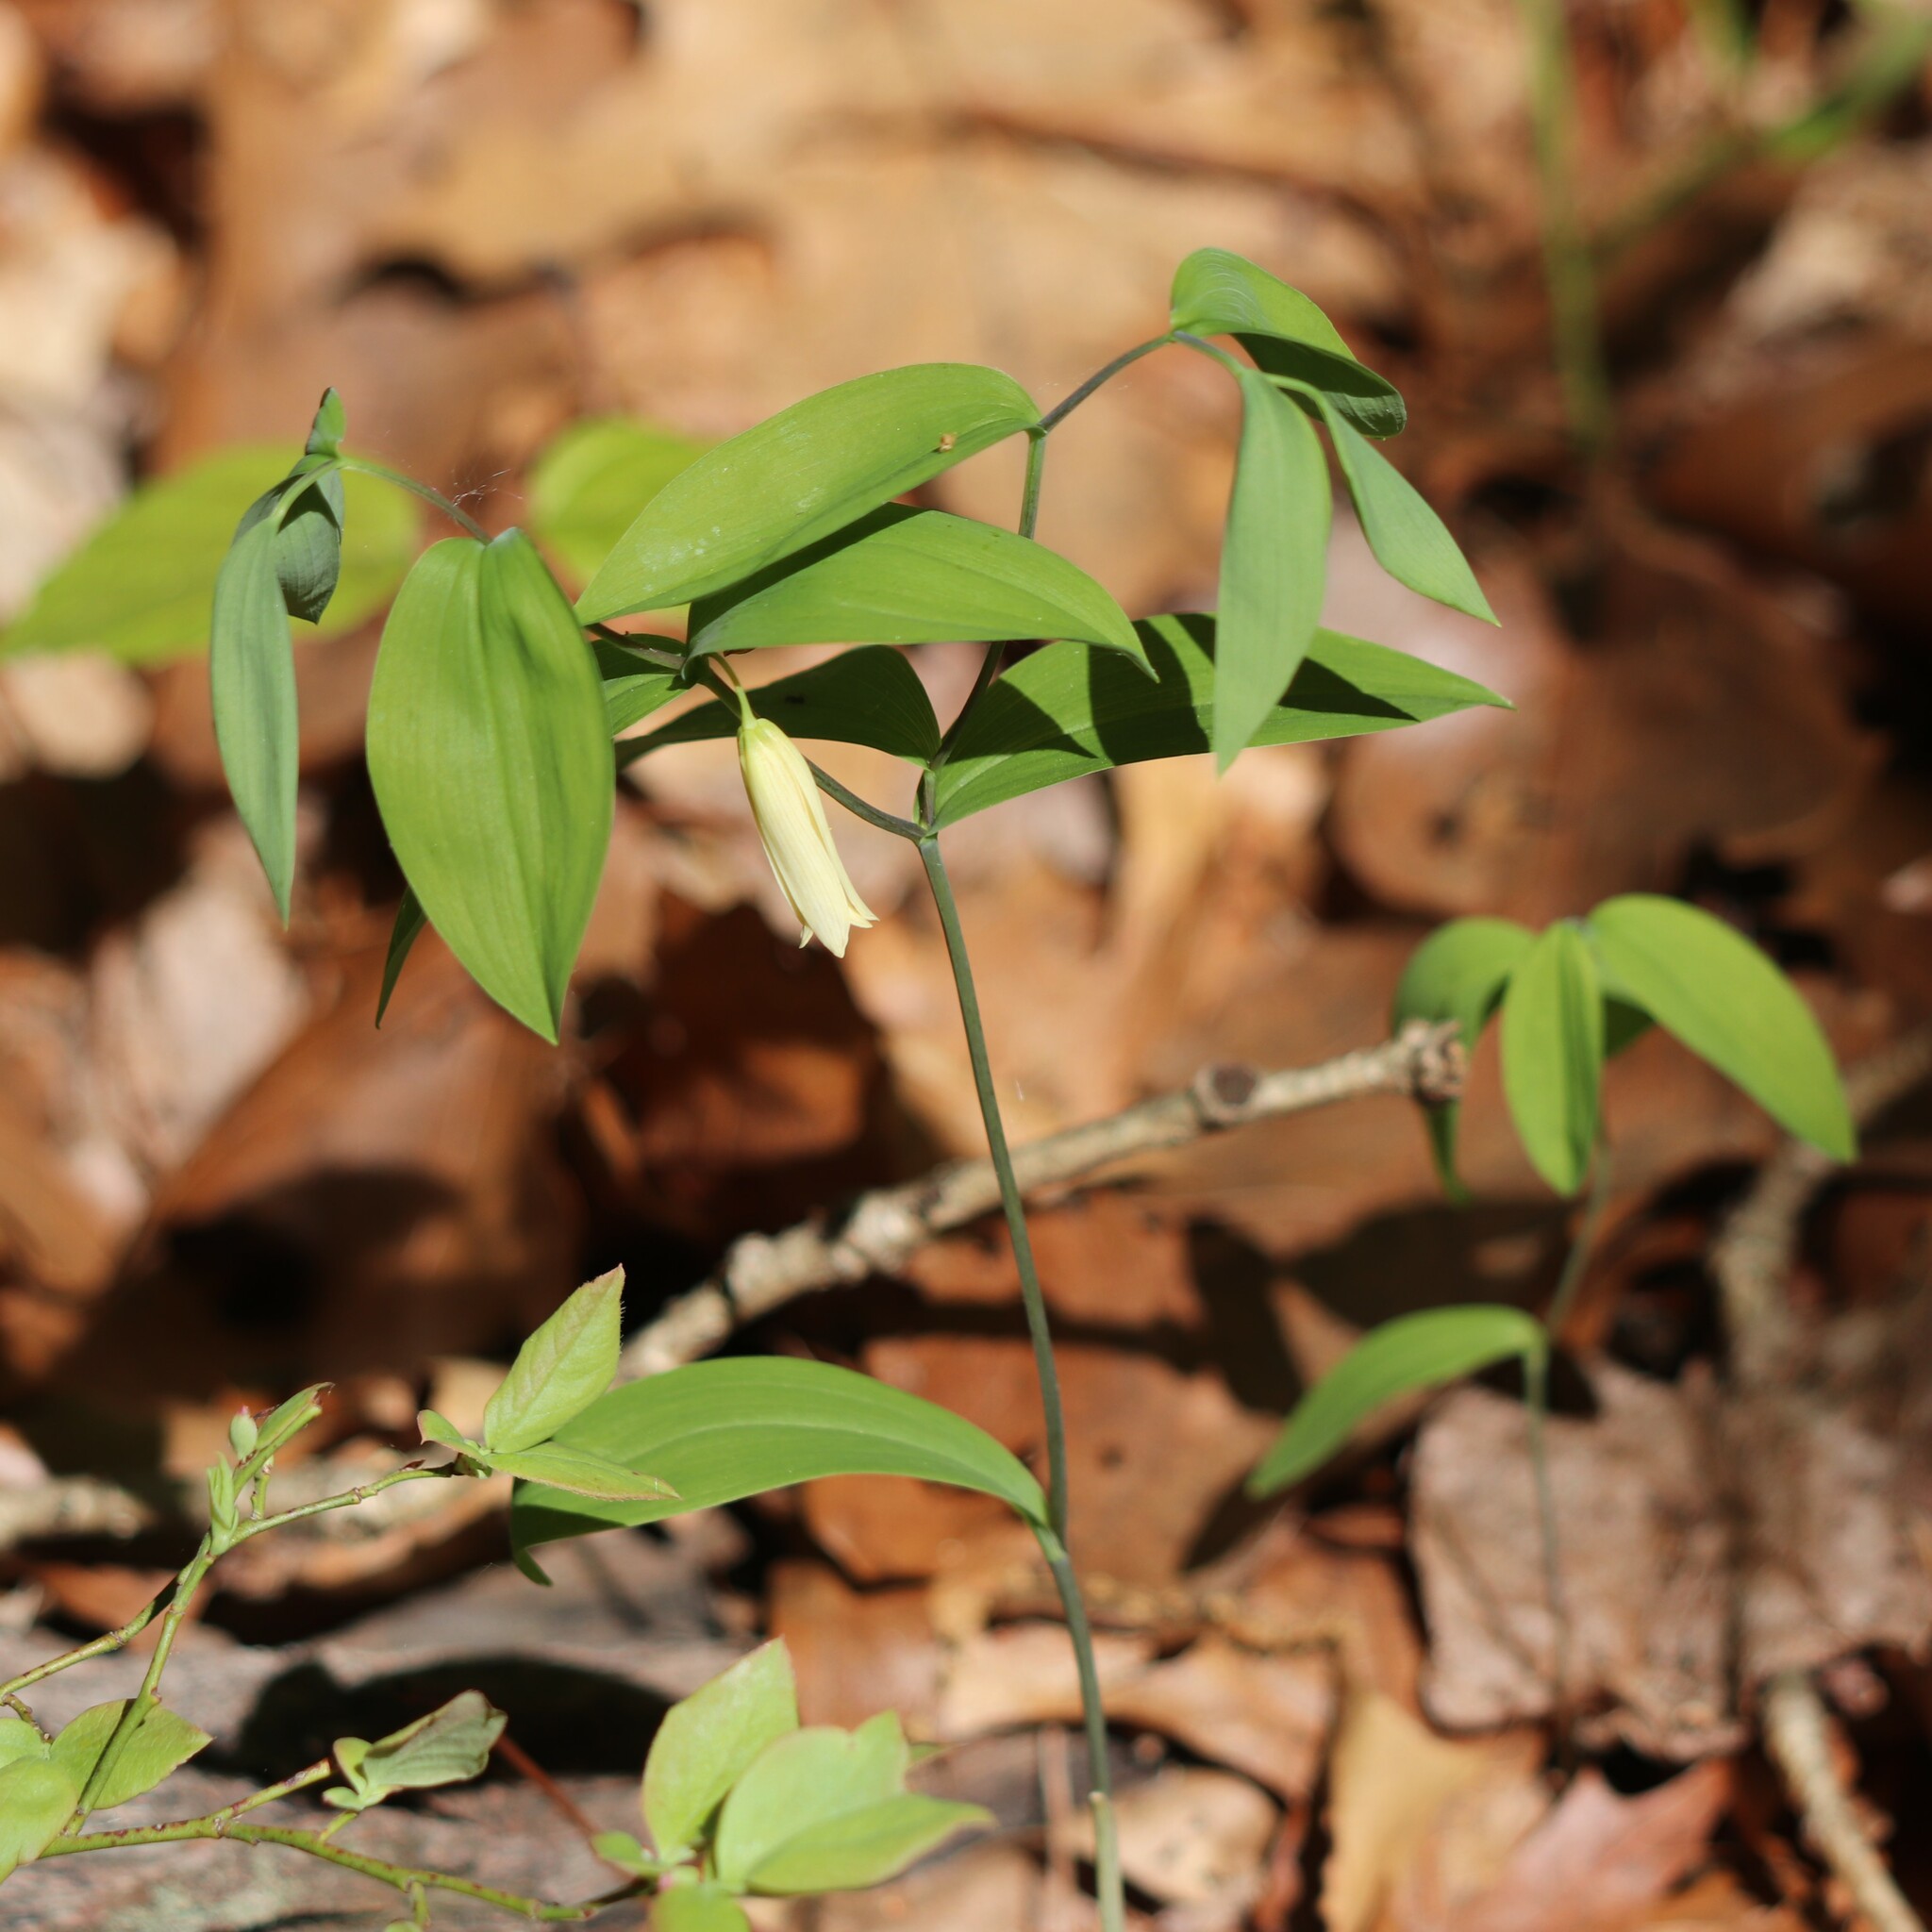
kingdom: Plantae
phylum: Tracheophyta
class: Liliopsida
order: Liliales
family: Colchicaceae
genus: Uvularia
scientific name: Uvularia sessilifolia
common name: Straw-lily
